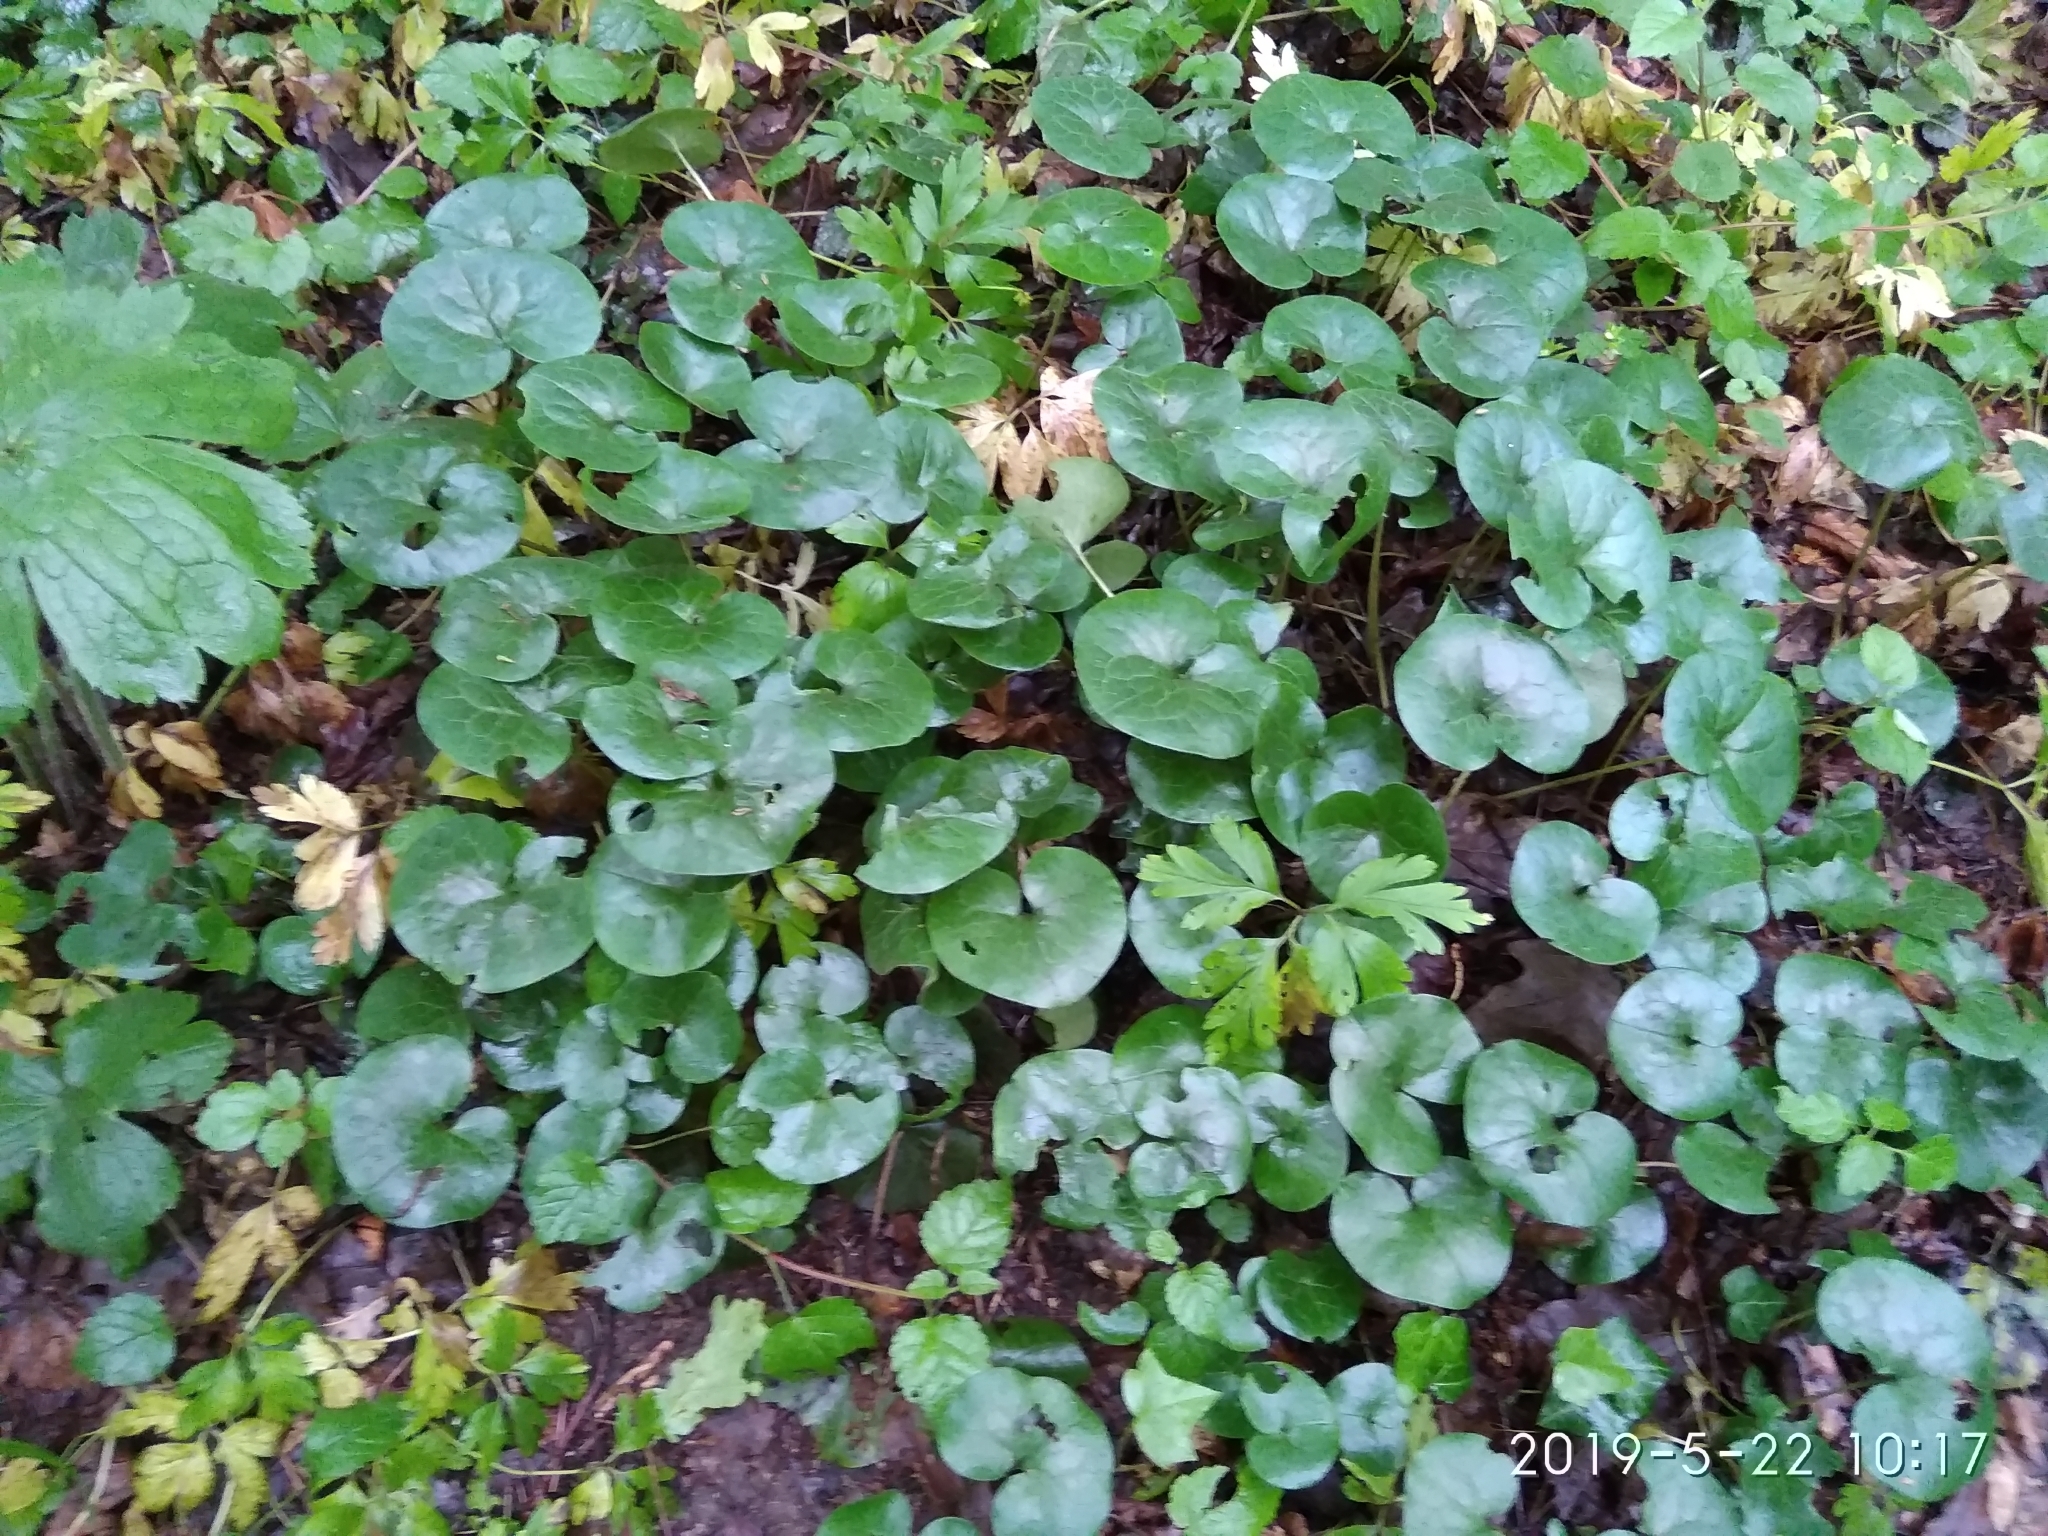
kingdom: Plantae
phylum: Tracheophyta
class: Magnoliopsida
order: Piperales
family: Aristolochiaceae
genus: Asarum
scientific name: Asarum europaeum
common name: Asarabacca
